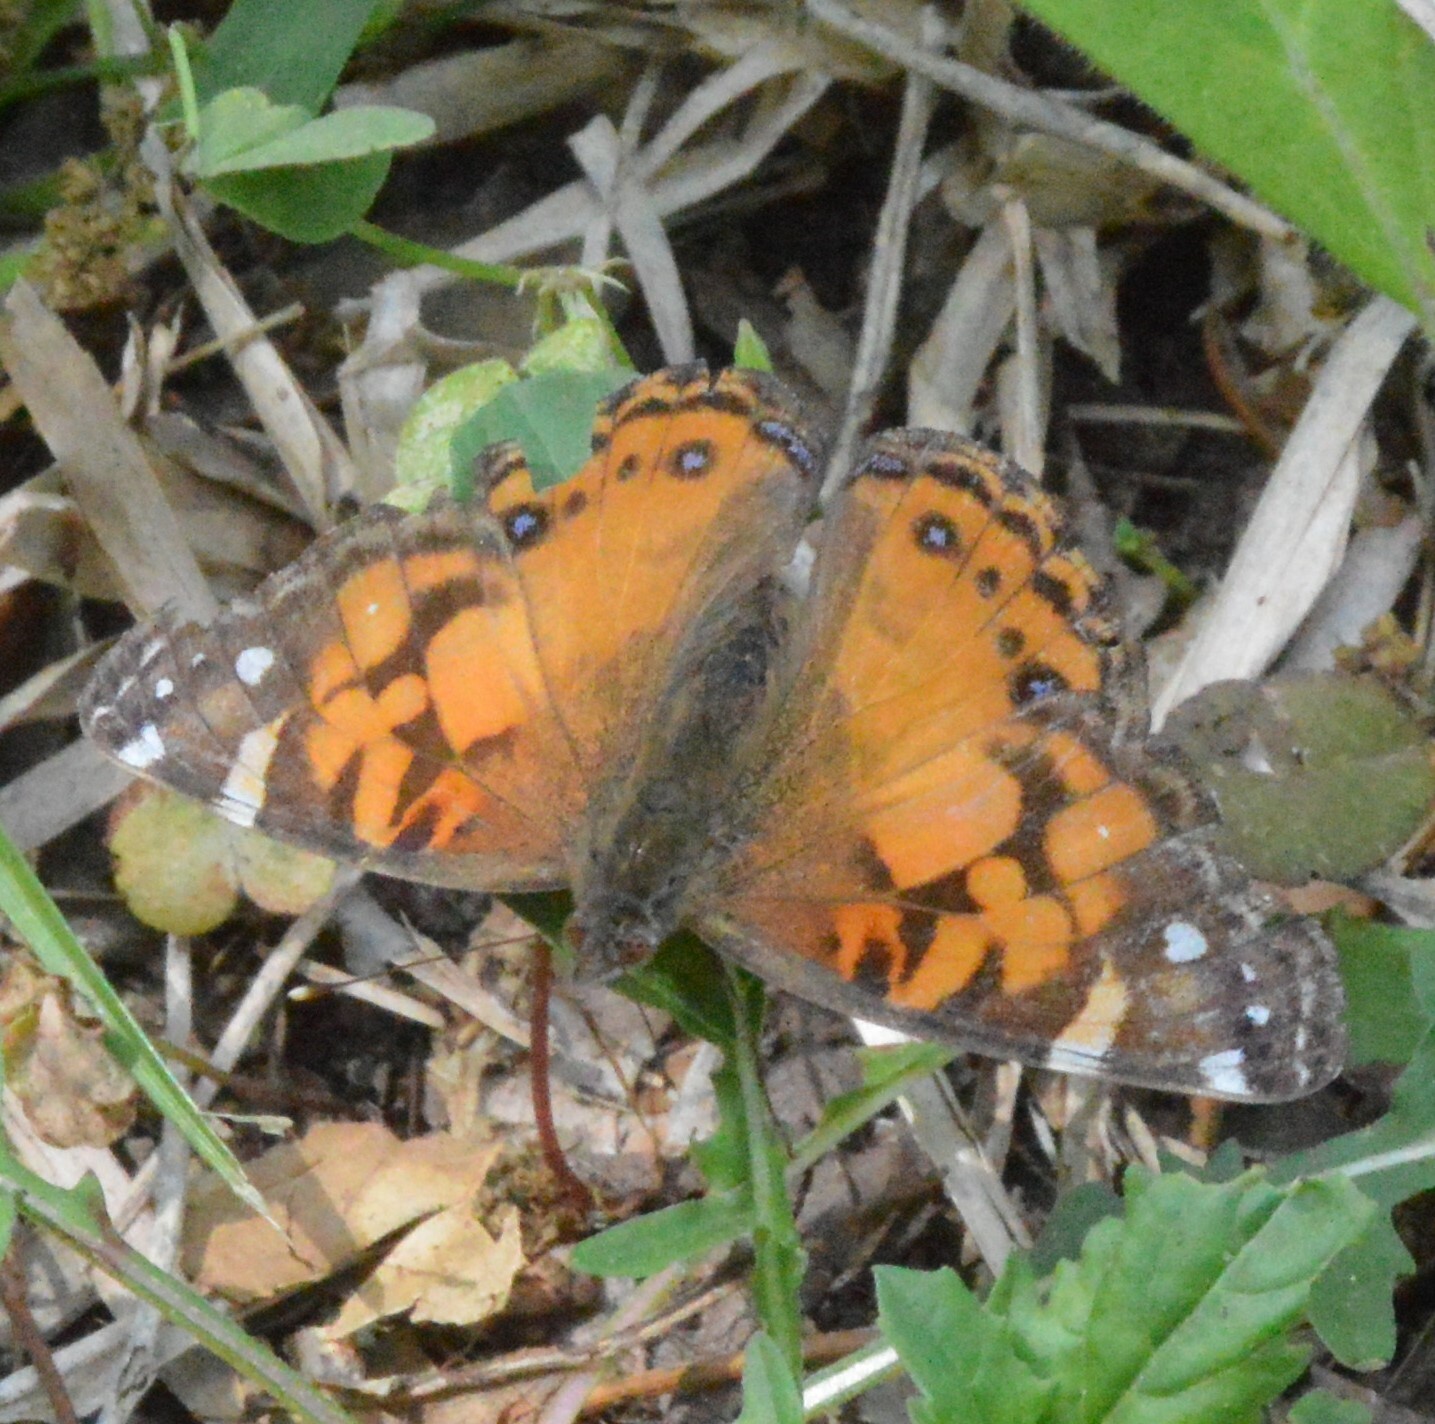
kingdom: Animalia
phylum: Arthropoda
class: Insecta
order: Lepidoptera
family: Nymphalidae
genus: Vanessa
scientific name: Vanessa virginiensis
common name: American lady
